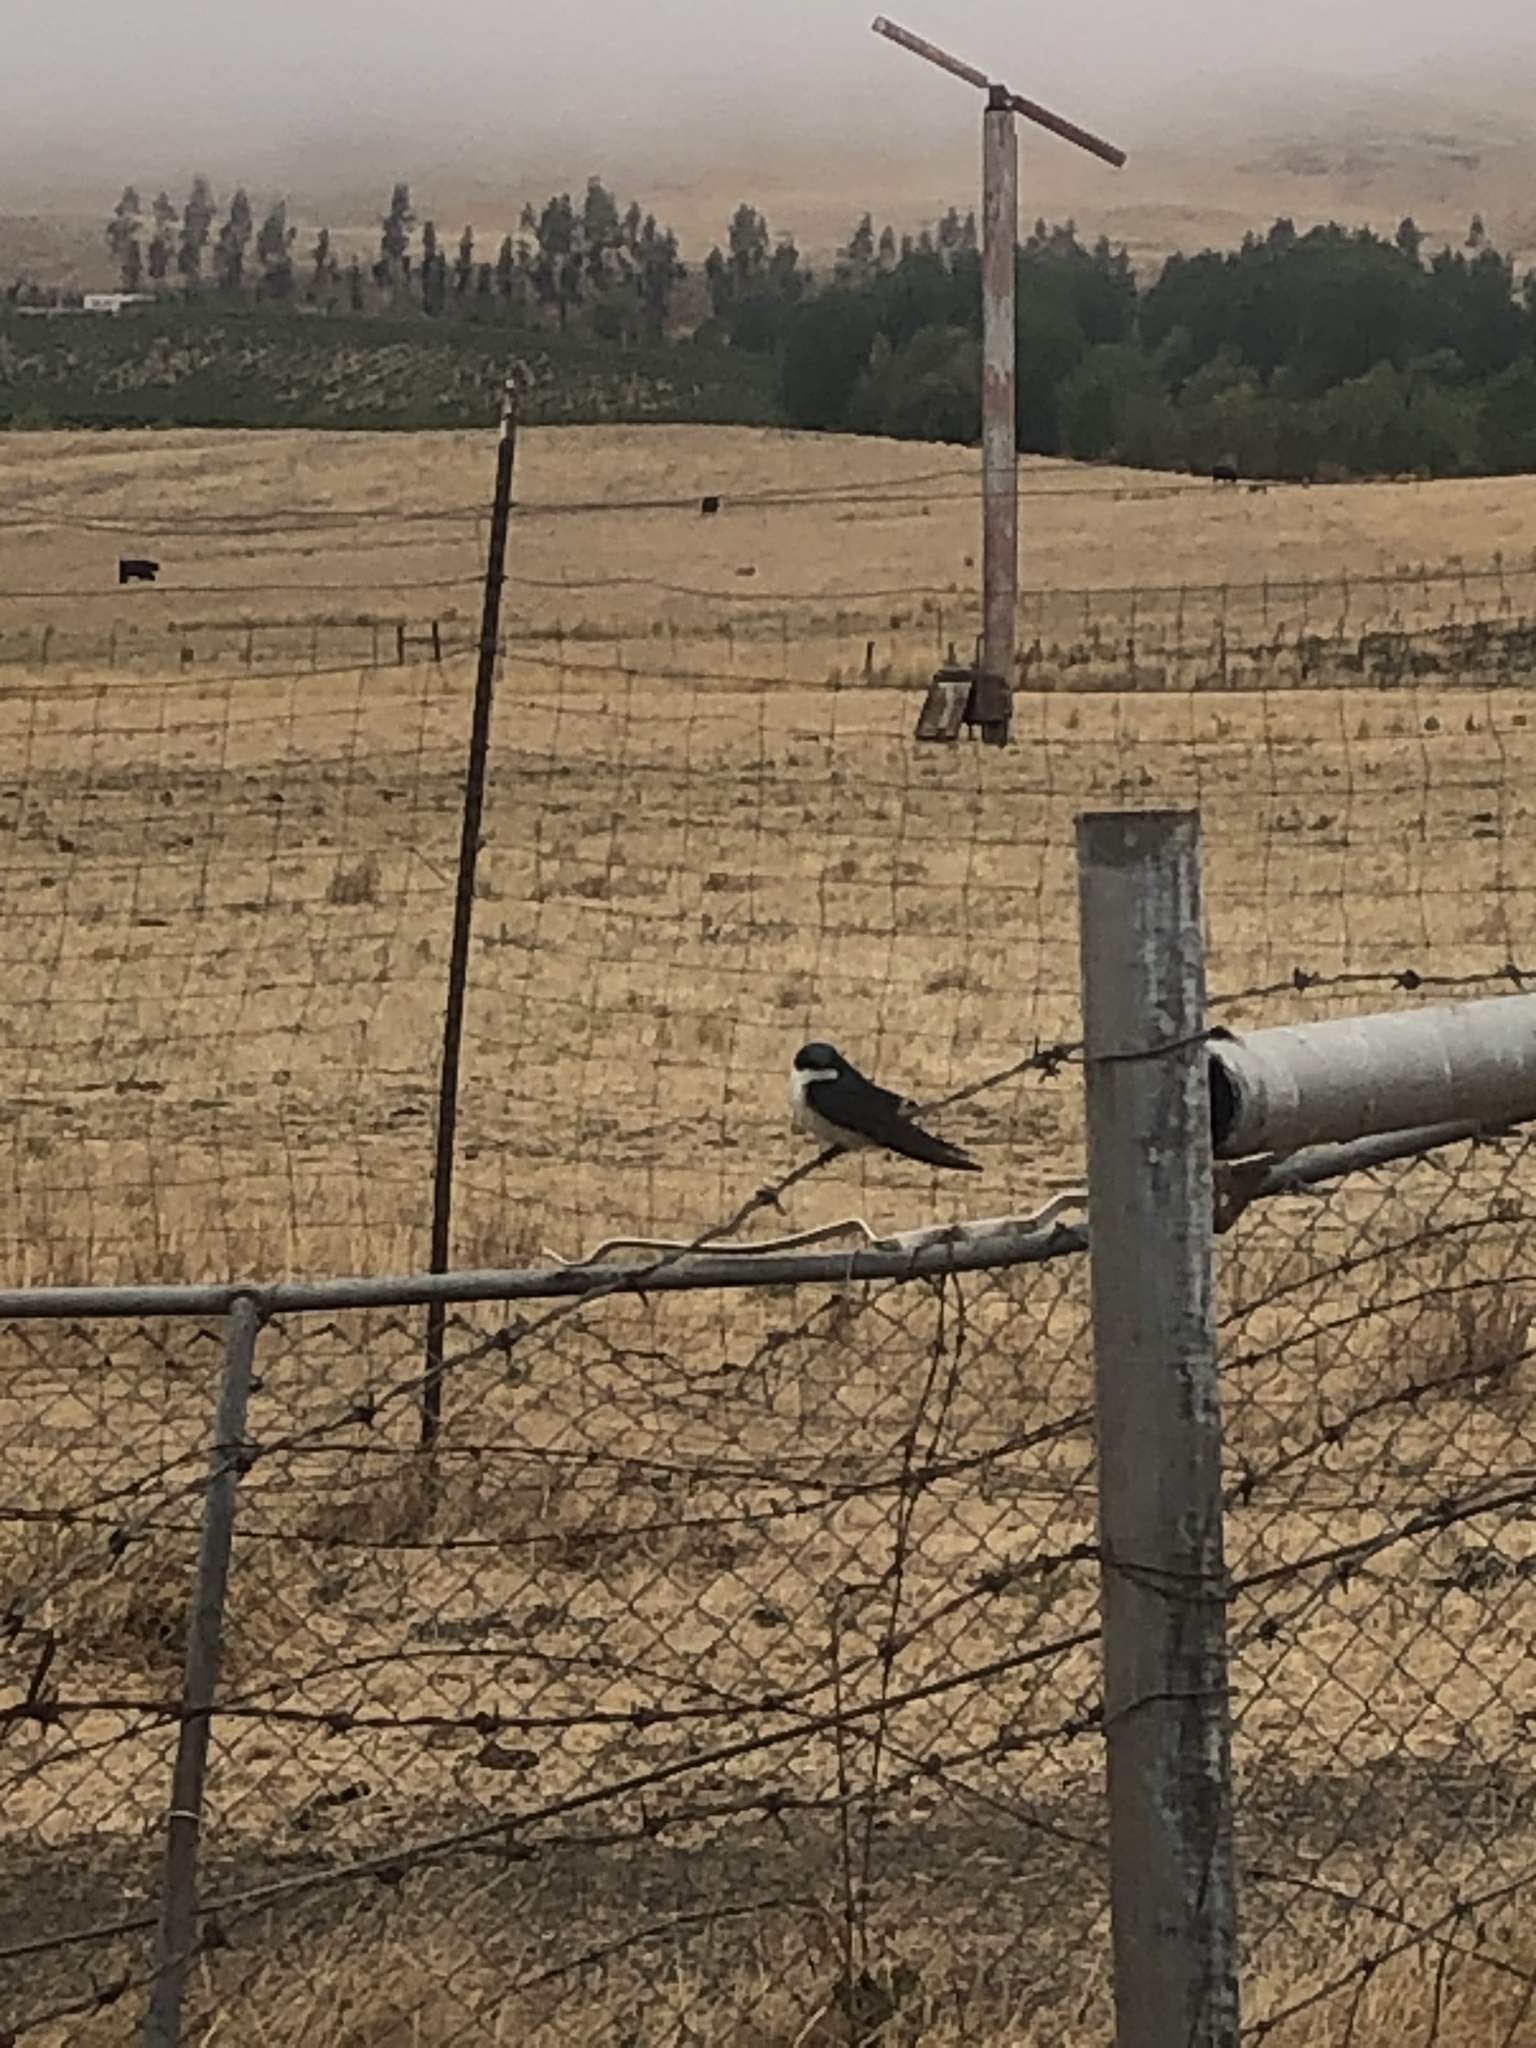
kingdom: Animalia
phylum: Chordata
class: Aves
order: Passeriformes
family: Hirundinidae
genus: Tachycineta
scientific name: Tachycineta bicolor
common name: Tree swallow
